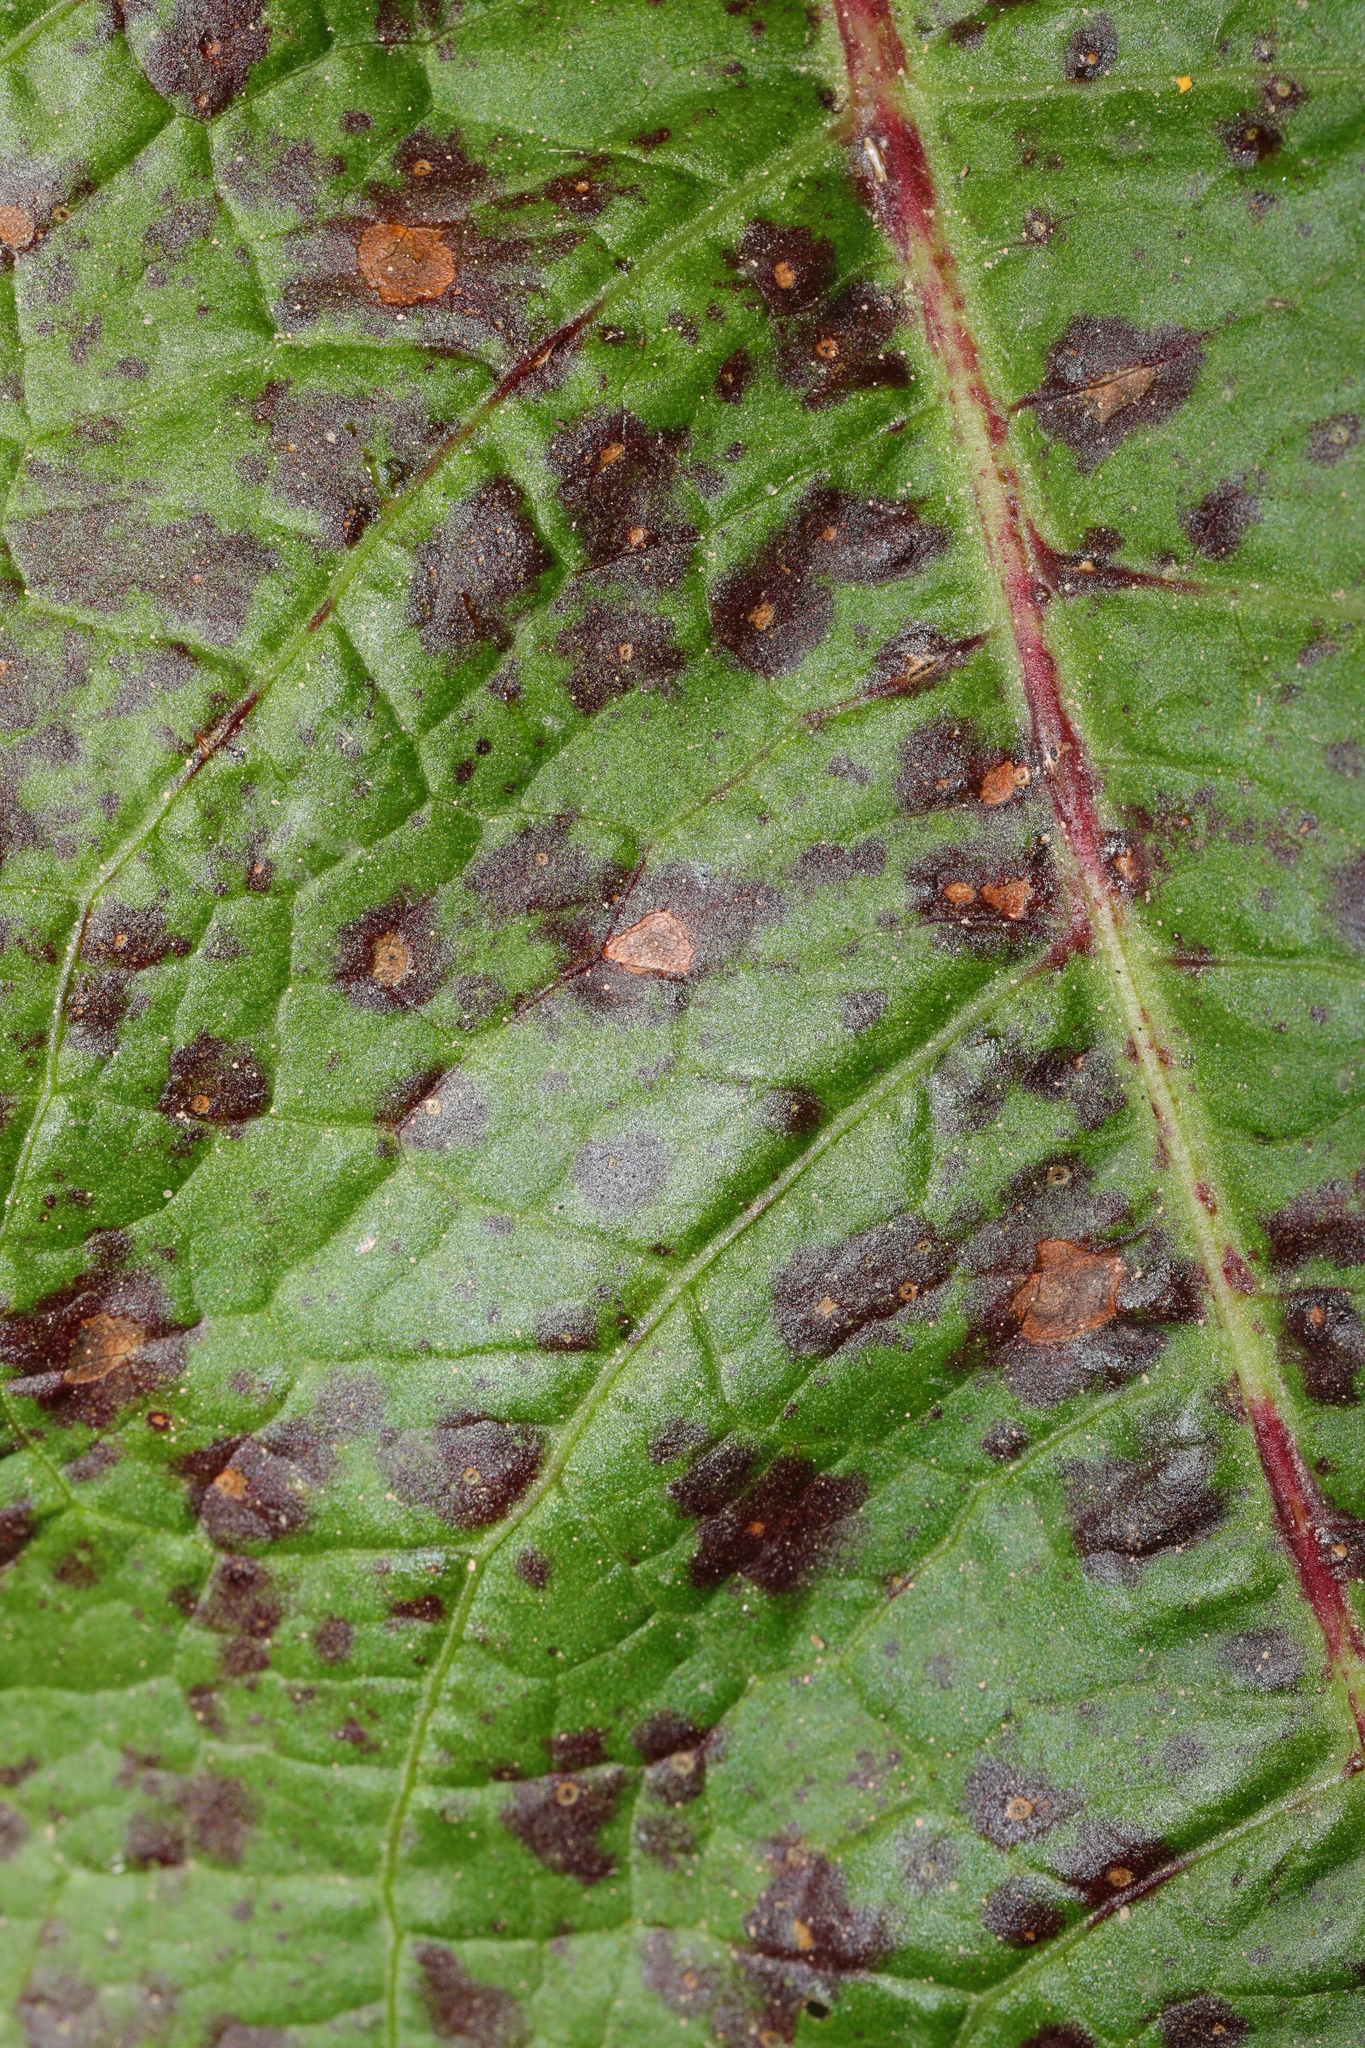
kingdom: Fungi
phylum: Ascomycota
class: Dothideomycetes
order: Mycosphaerellales
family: Mycosphaerellaceae
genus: Ramularia
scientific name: Ramularia rubella
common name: Red dock spot
